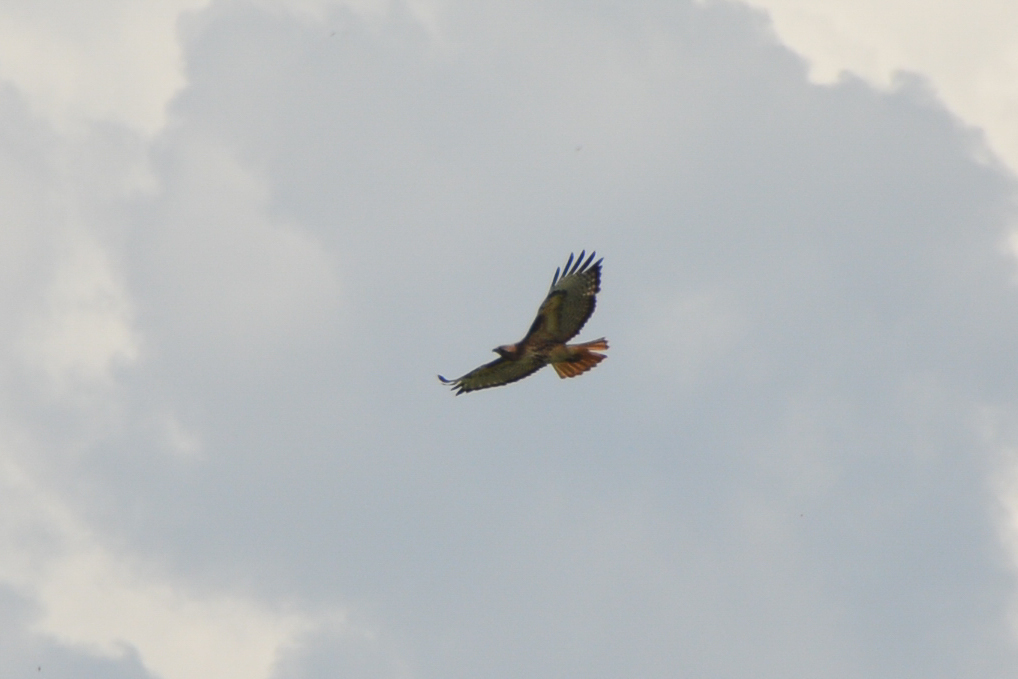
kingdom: Animalia
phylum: Chordata
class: Aves
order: Accipitriformes
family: Accipitridae
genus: Buteo
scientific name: Buteo jamaicensis
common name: Red-tailed hawk
